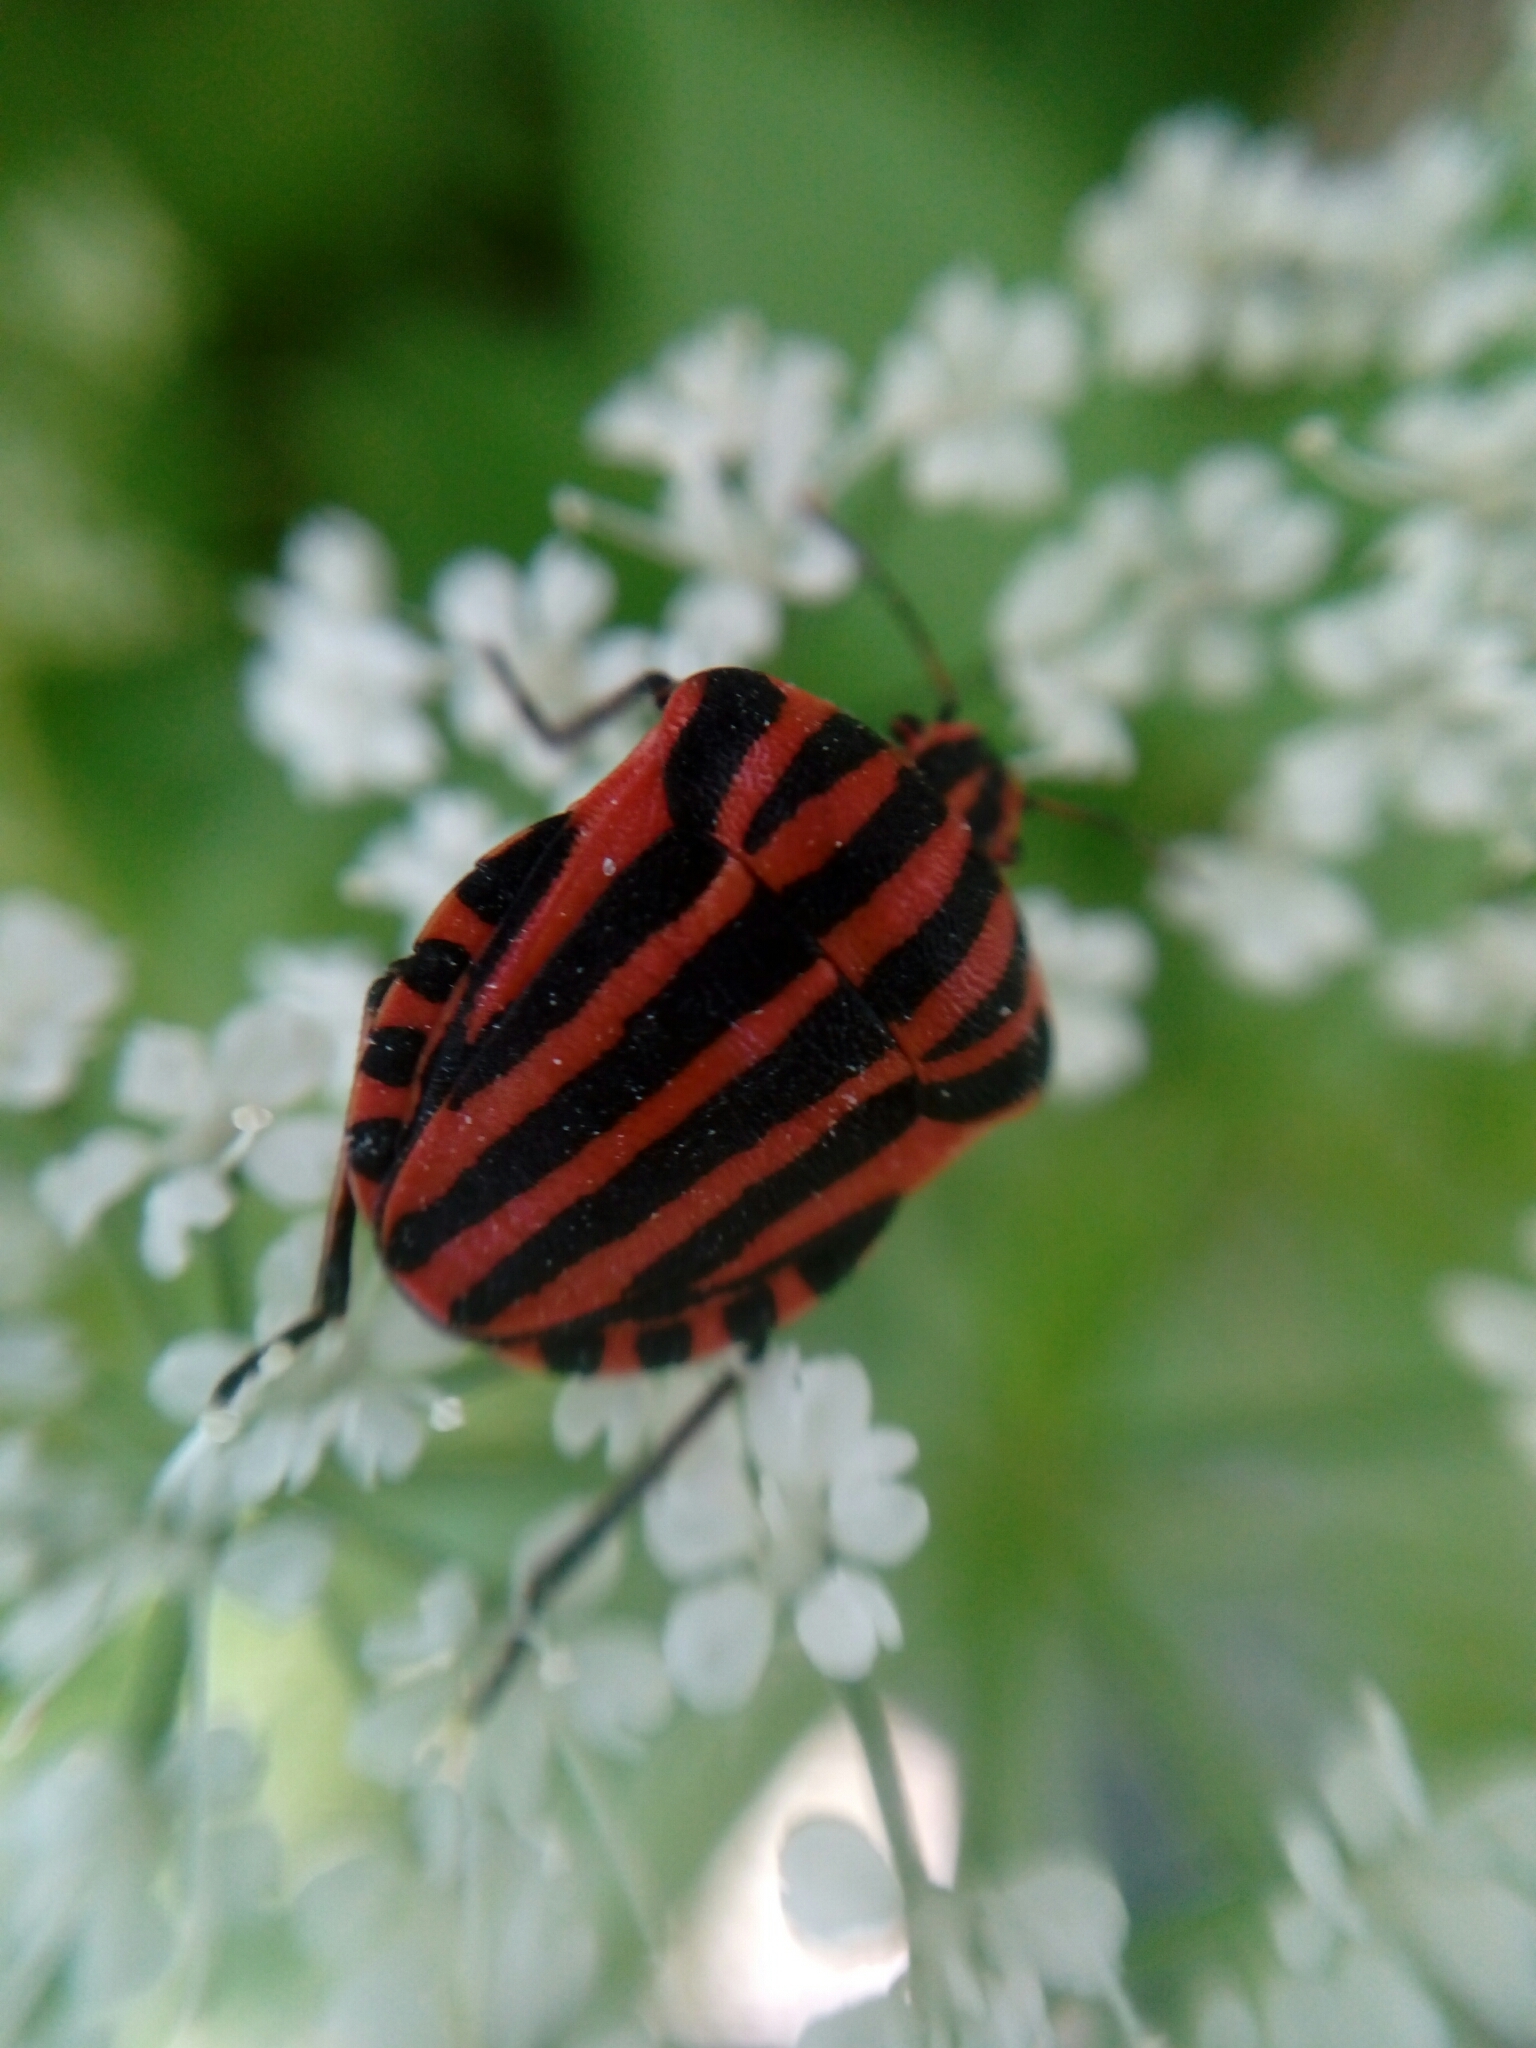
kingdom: Animalia
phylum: Arthropoda
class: Insecta
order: Hemiptera
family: Pentatomidae
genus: Graphosoma
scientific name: Graphosoma italicum
